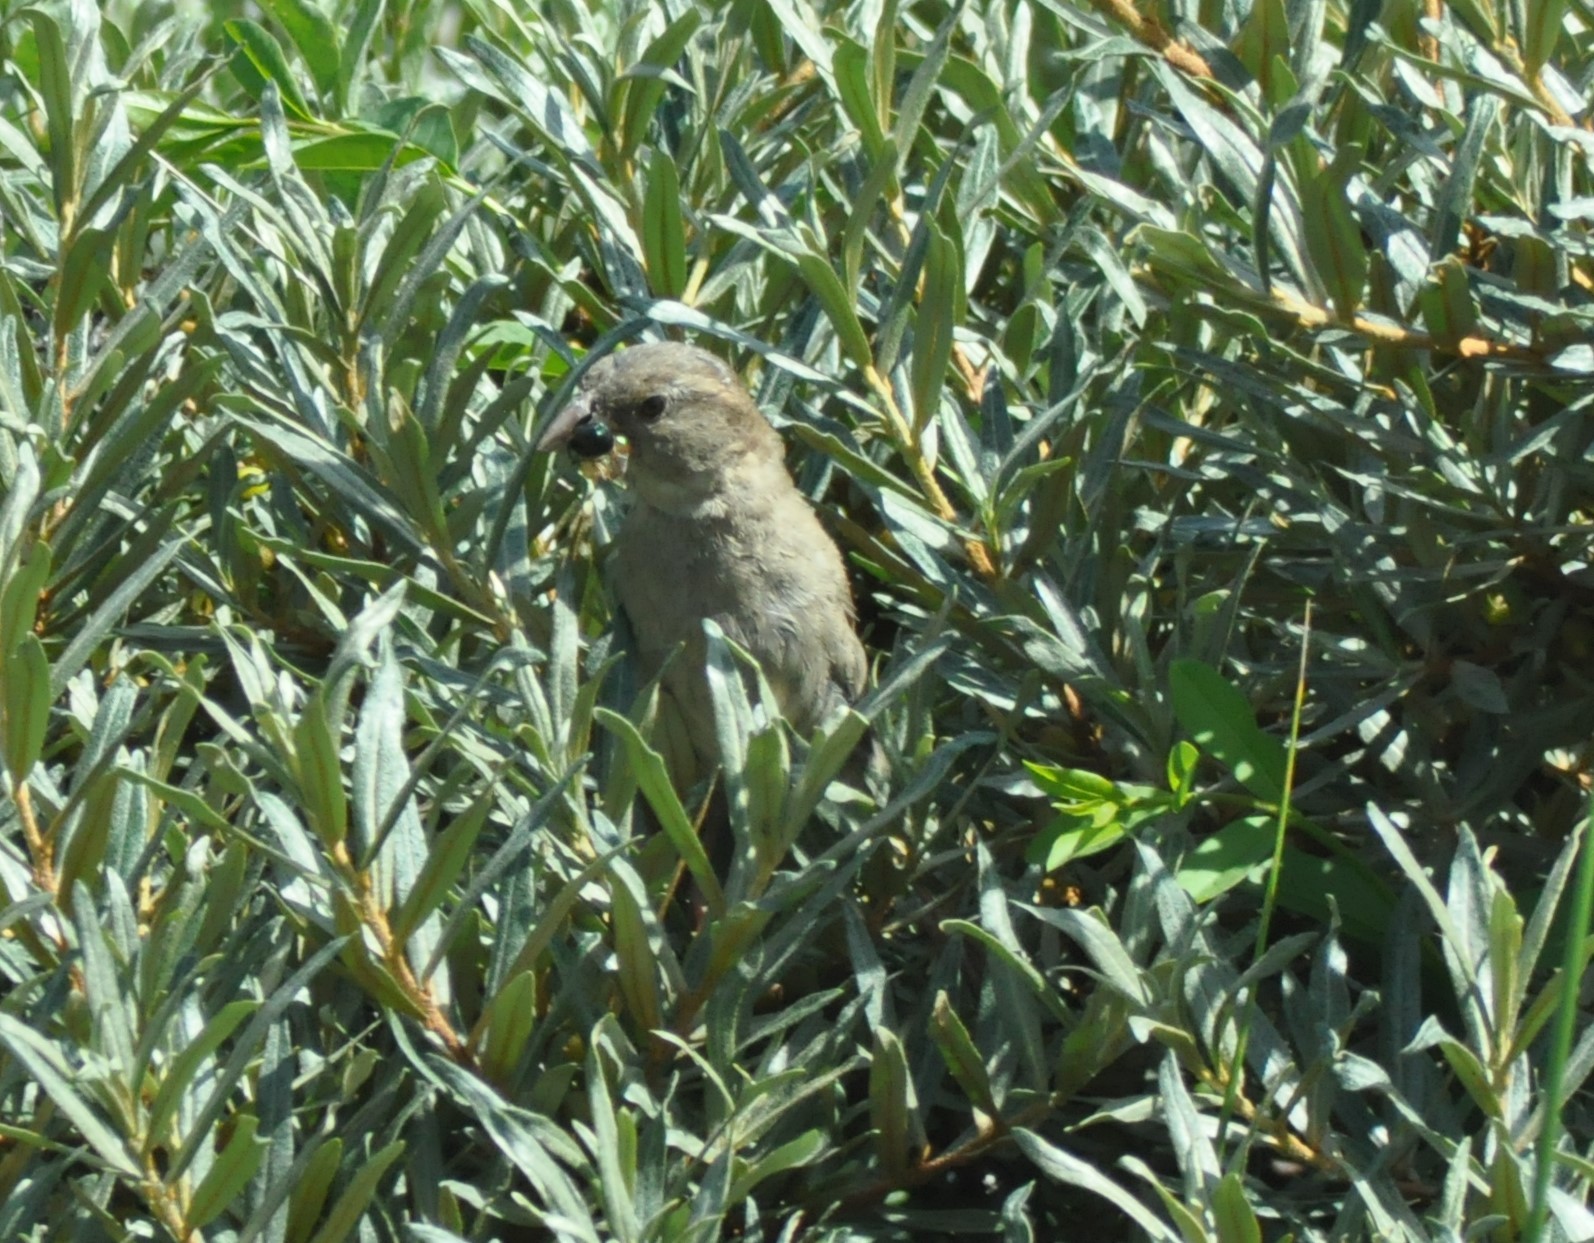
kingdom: Animalia
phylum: Chordata
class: Aves
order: Passeriformes
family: Passeridae
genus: Passer
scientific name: Passer domesticus
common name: House sparrow
